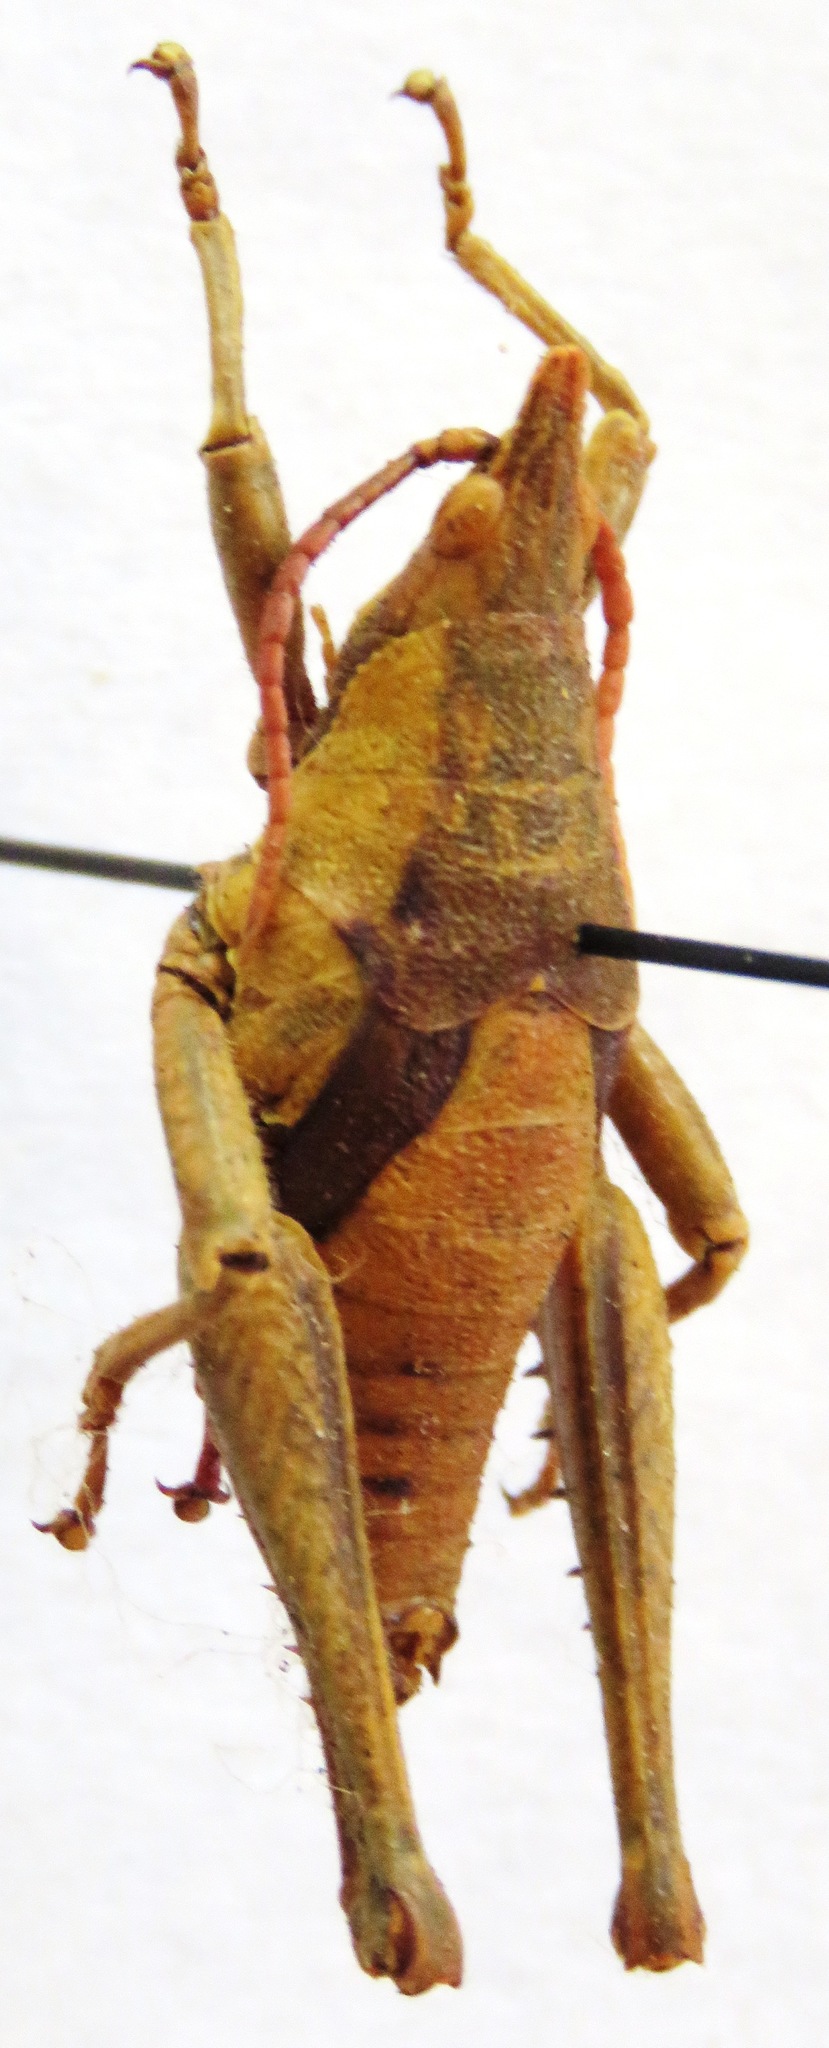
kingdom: Animalia
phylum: Arthropoda
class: Insecta
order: Orthoptera
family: Pyrgomorphidae
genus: Prosphena
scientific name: Prosphena scudderi
